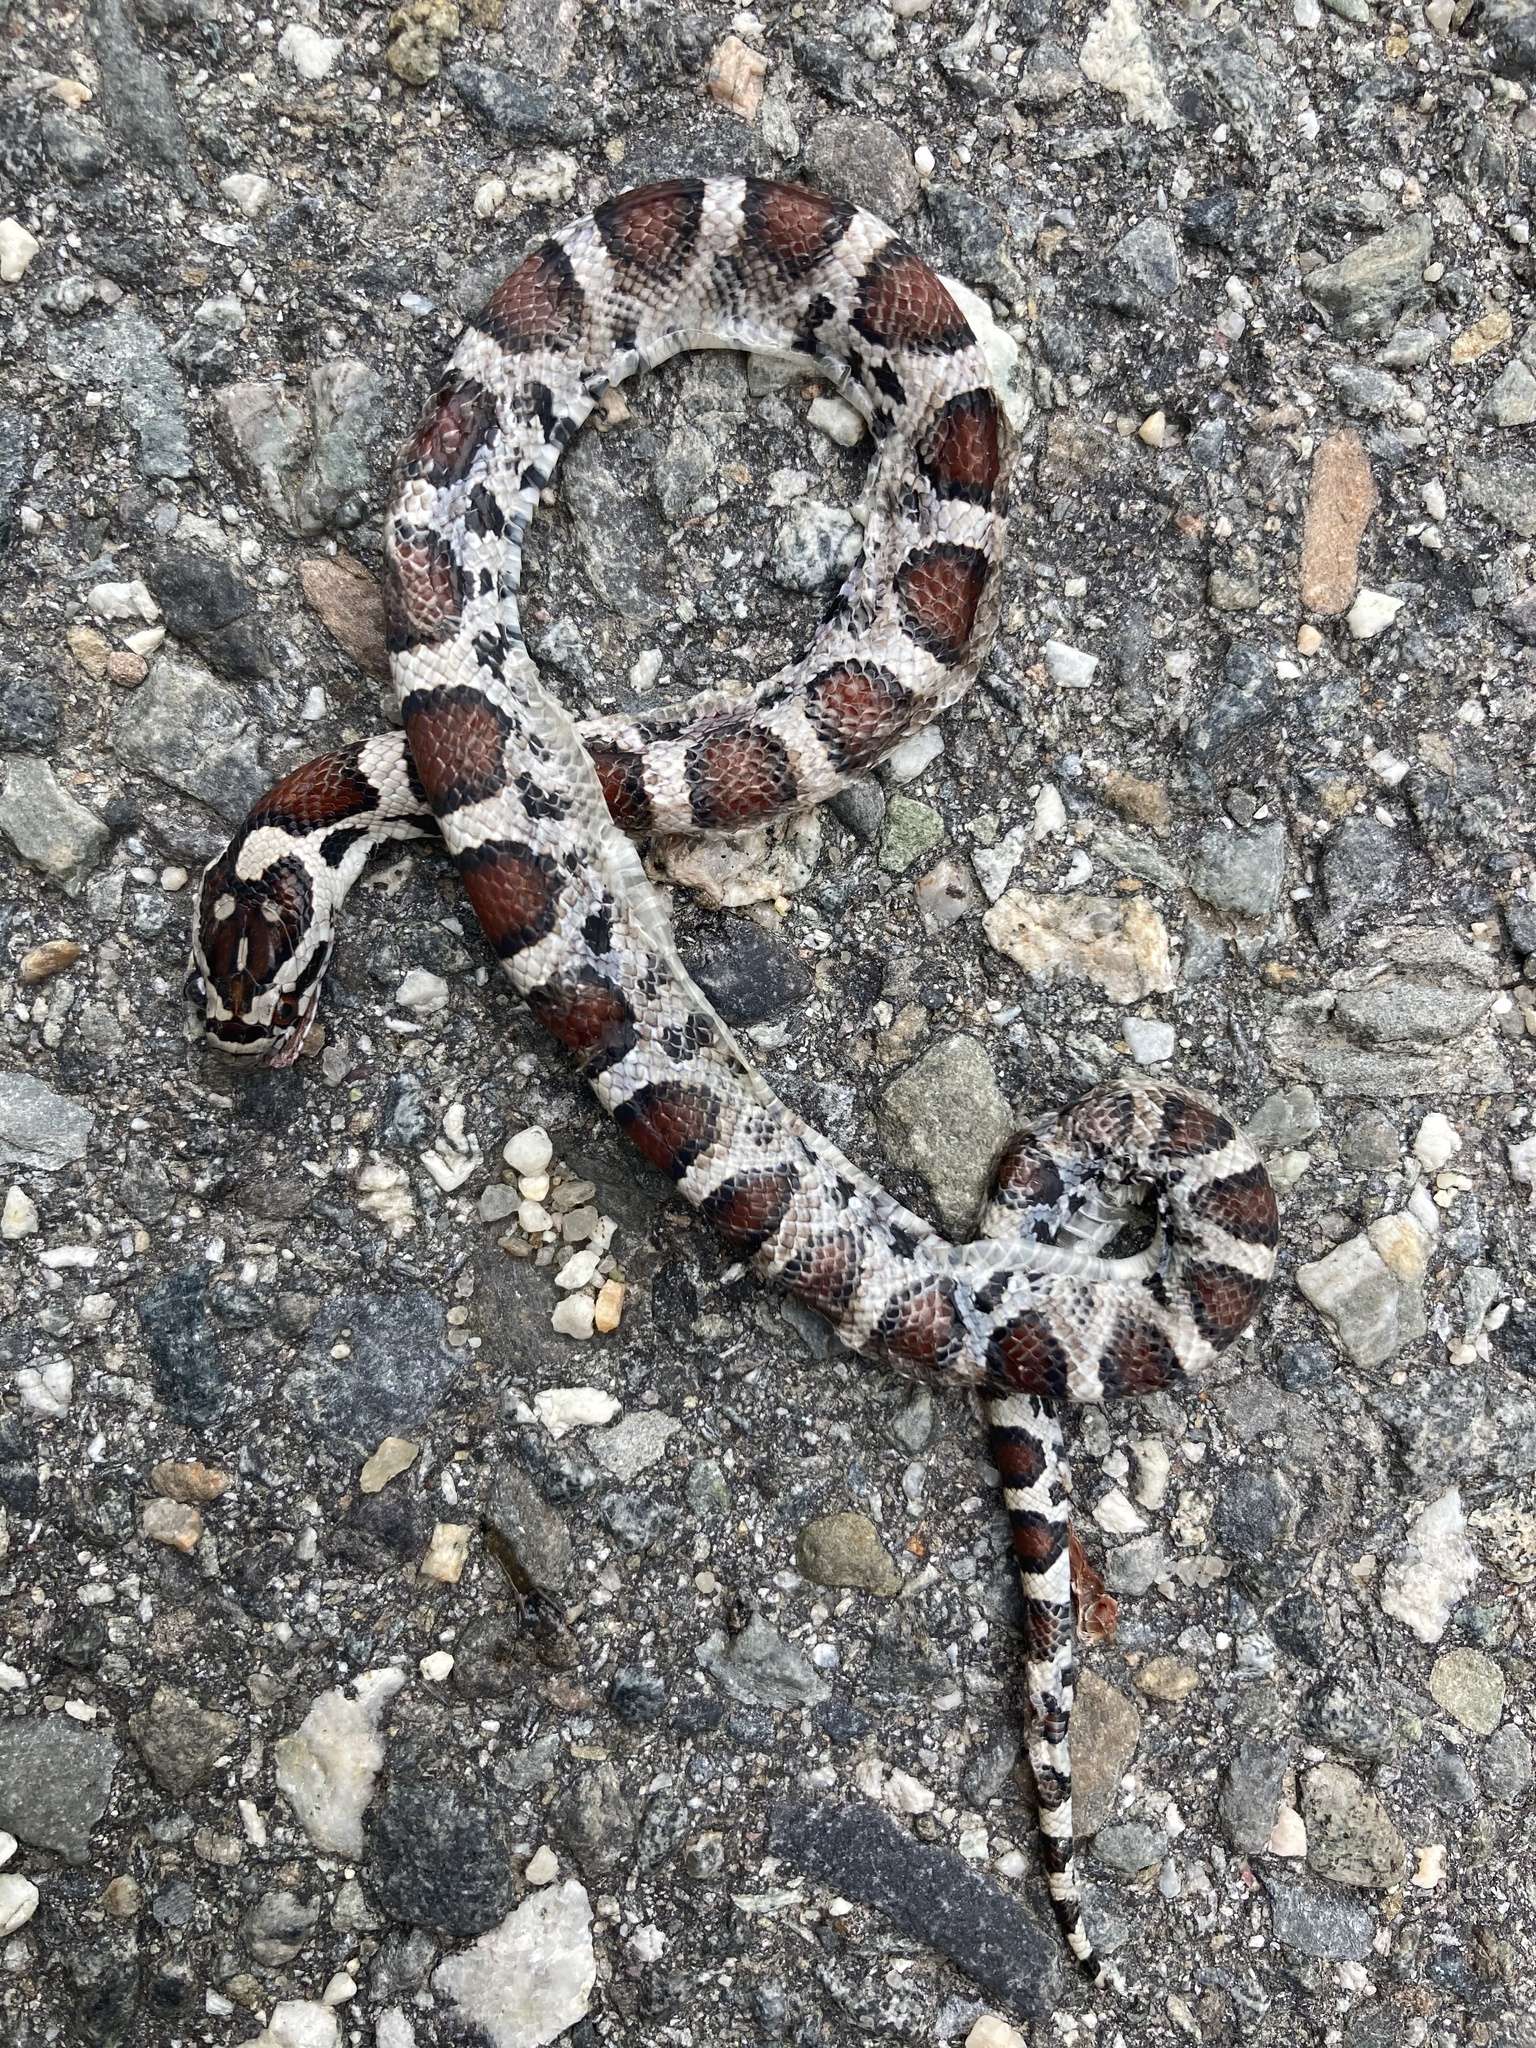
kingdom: Animalia
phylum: Chordata
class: Squamata
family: Colubridae
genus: Lampropeltis
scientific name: Lampropeltis triangulum
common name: Eastern milksnake
